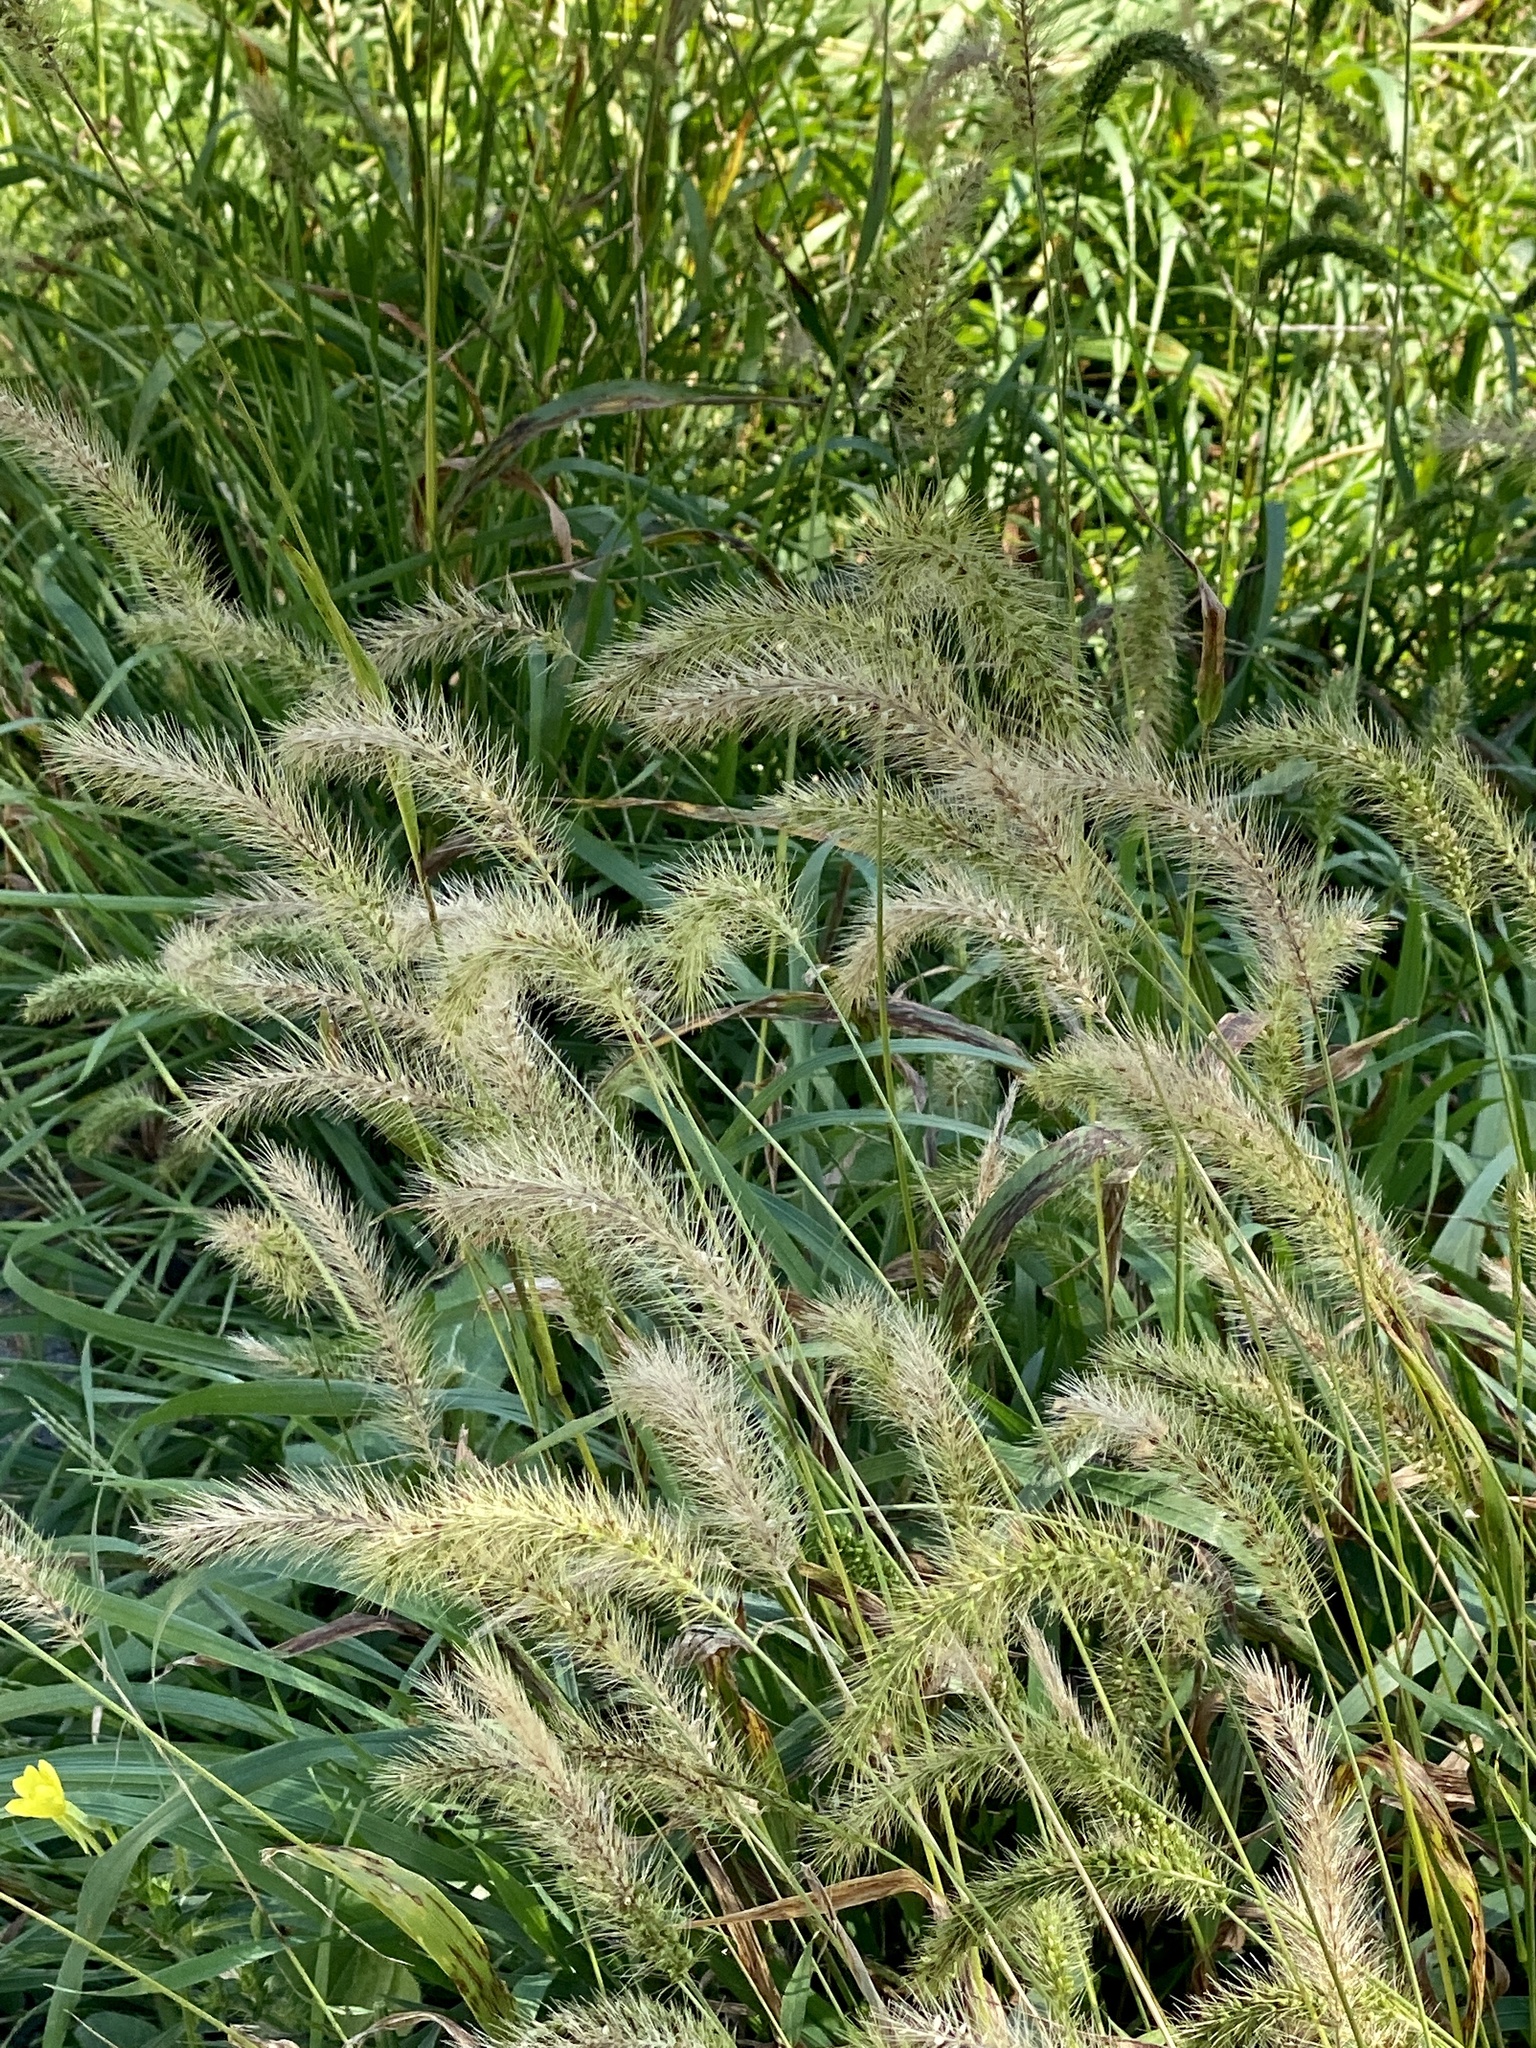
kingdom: Plantae
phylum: Tracheophyta
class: Liliopsida
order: Poales
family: Poaceae
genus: Setaria
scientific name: Setaria faberi
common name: Nodding bristle-grass
